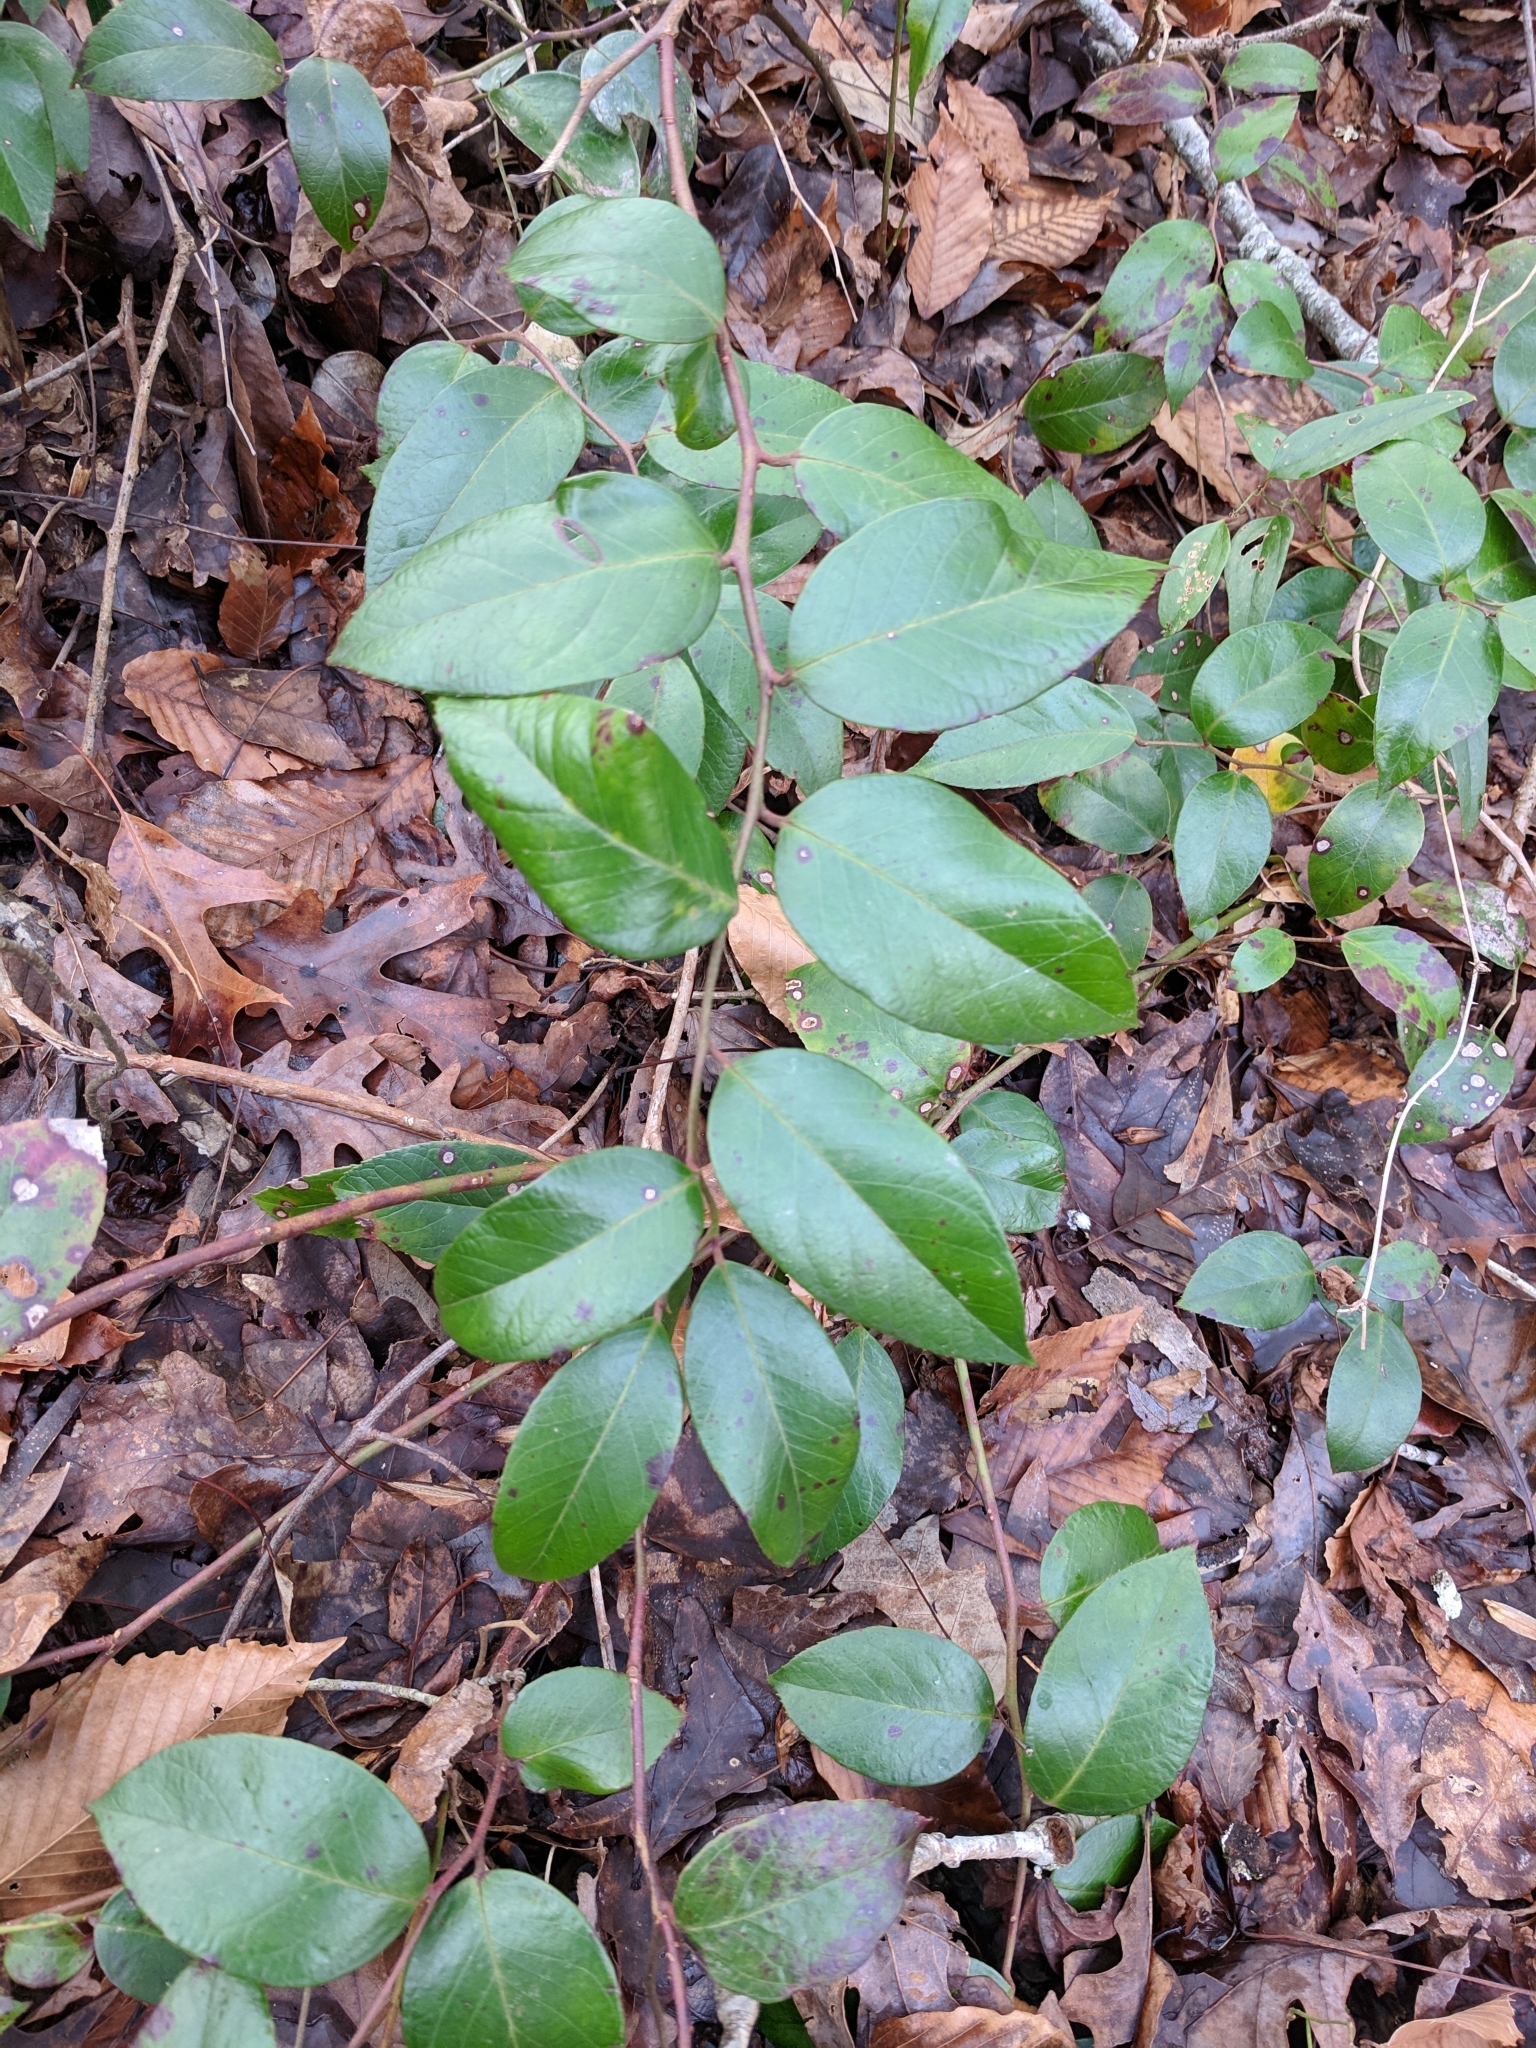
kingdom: Plantae
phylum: Tracheophyta
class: Magnoliopsida
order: Ericales
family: Ericaceae
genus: Leucothoe
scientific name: Leucothoe axillaris
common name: Leucothoe
